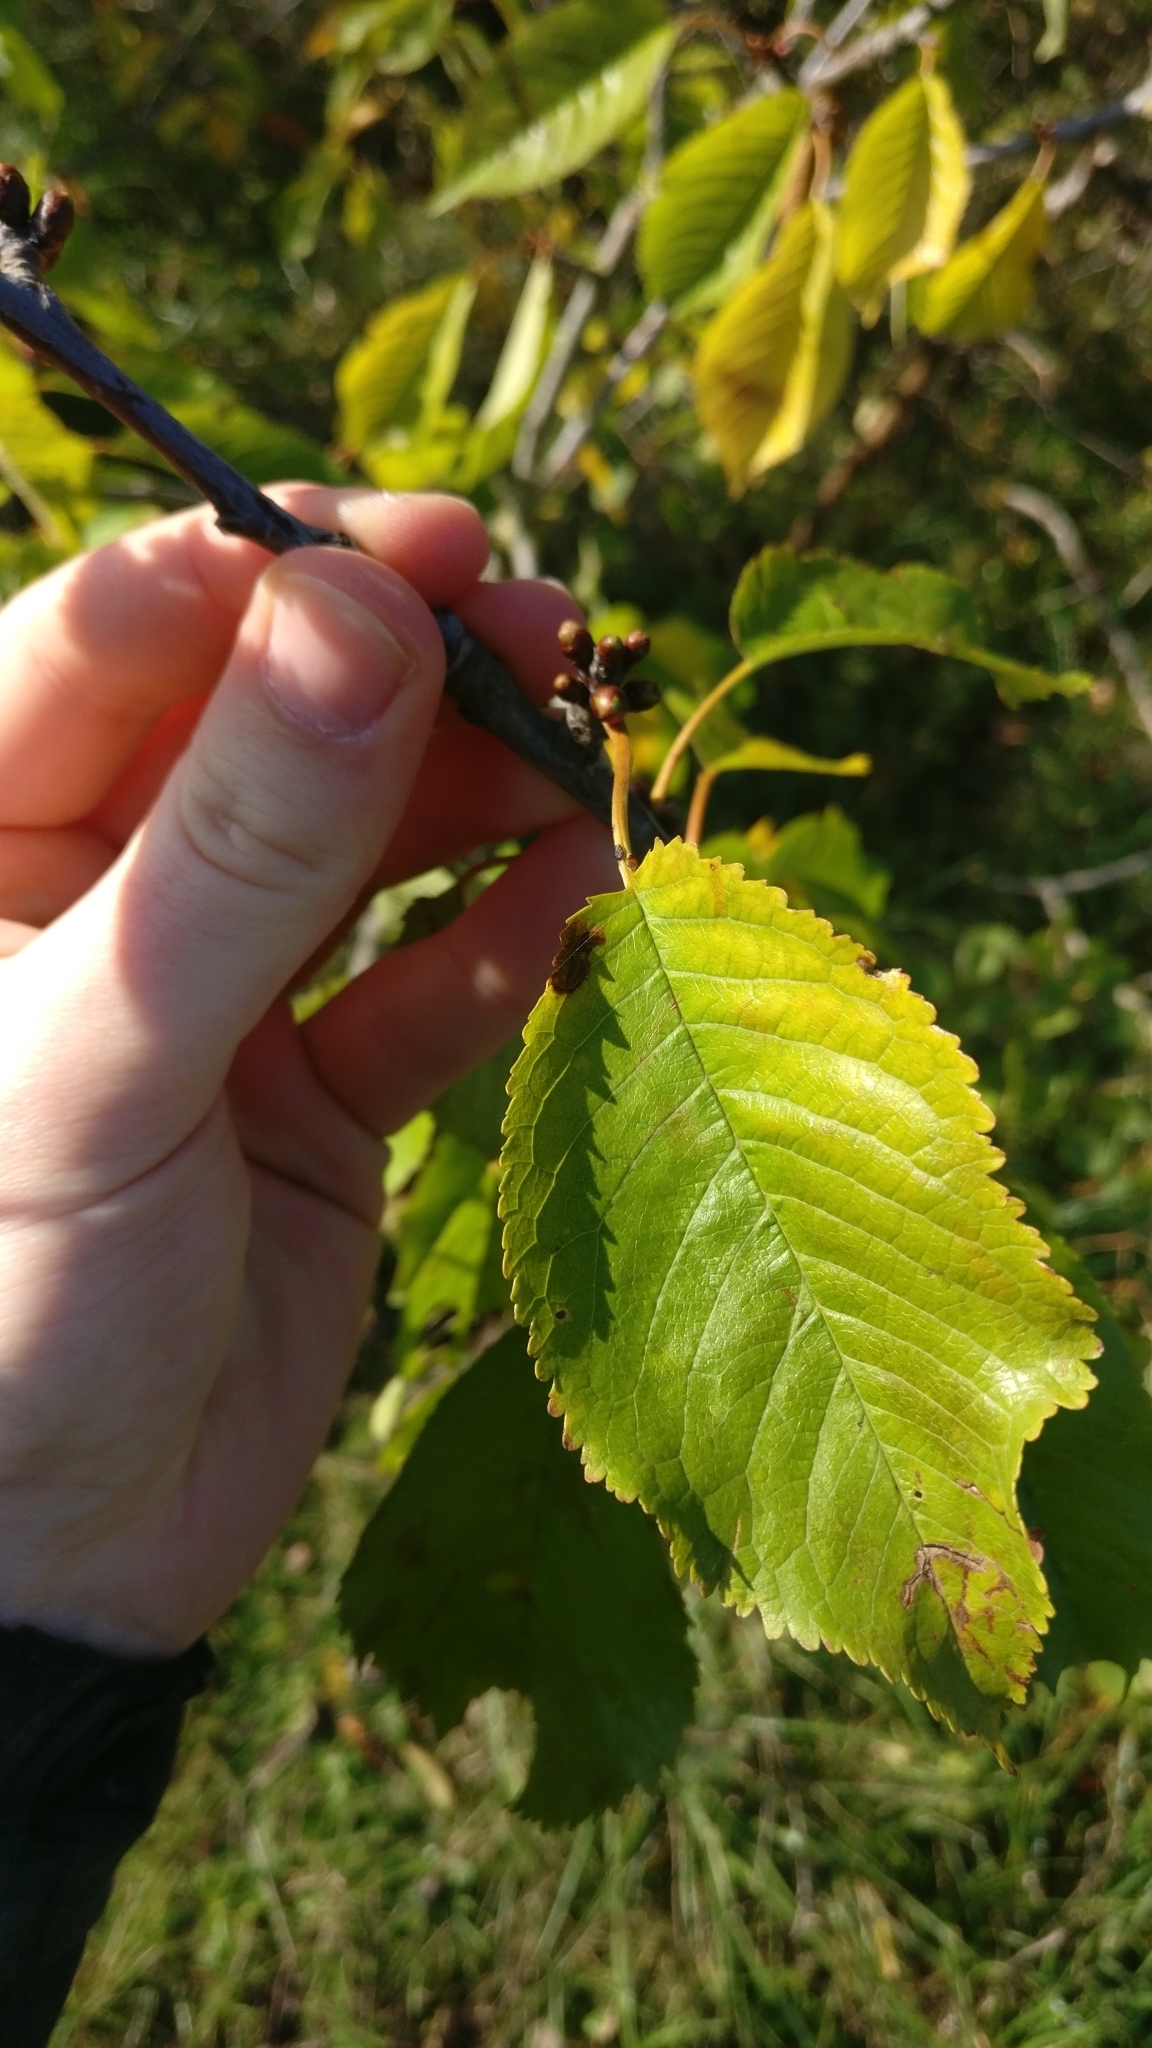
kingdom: Plantae
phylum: Tracheophyta
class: Magnoliopsida
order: Rosales
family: Rosaceae
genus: Prunus
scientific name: Prunus avium
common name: Sweet cherry
